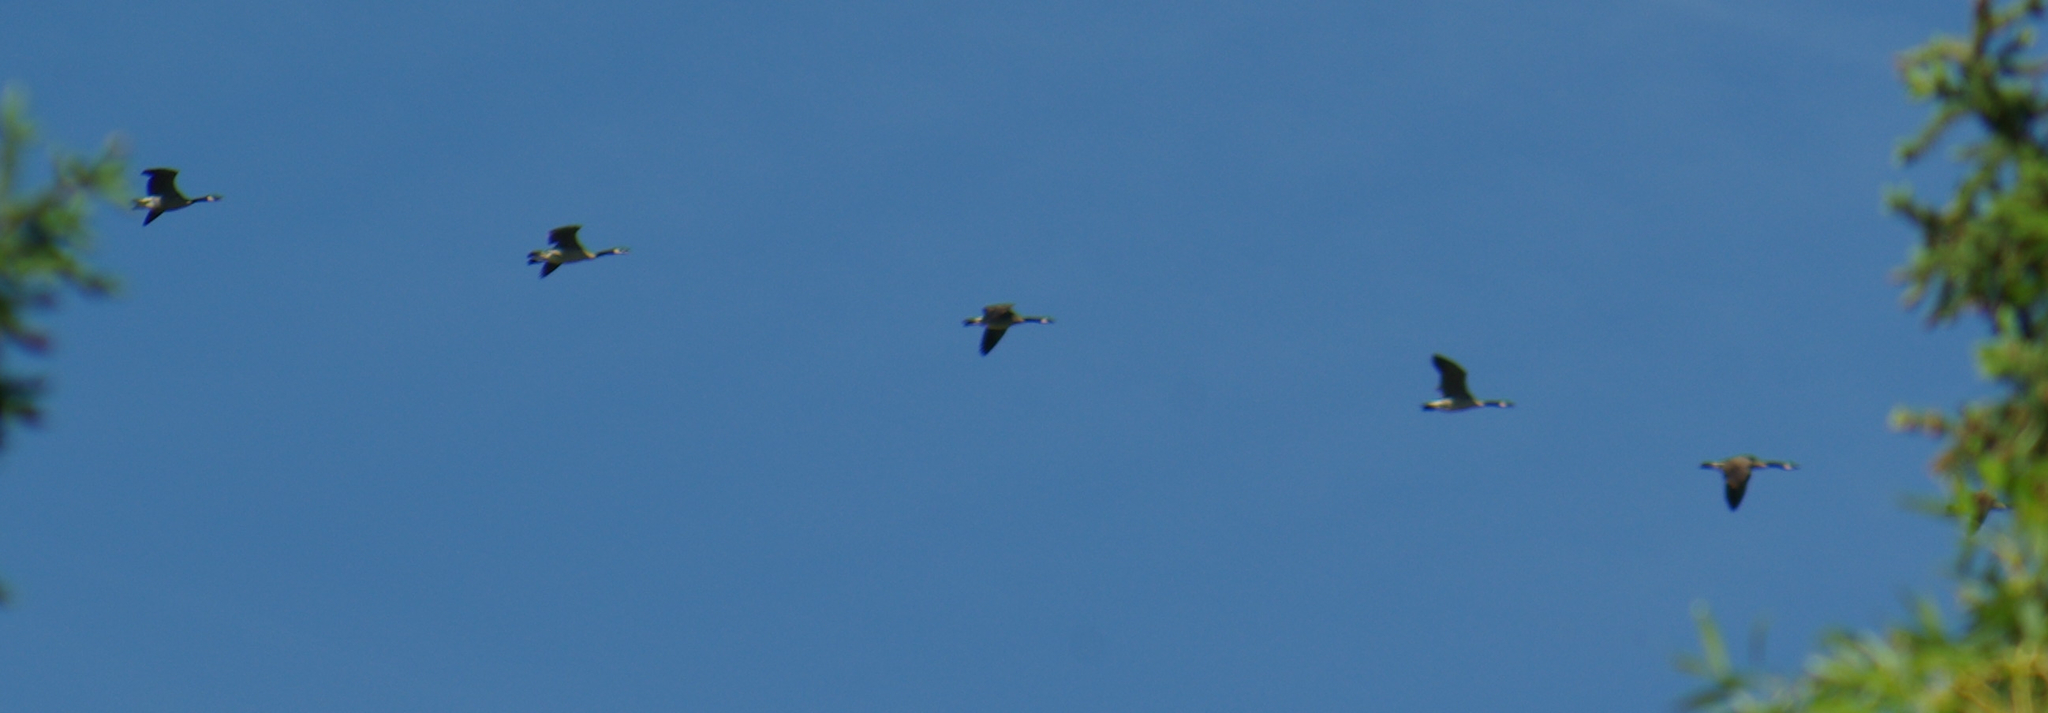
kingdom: Animalia
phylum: Chordata
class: Aves
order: Anseriformes
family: Anatidae
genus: Branta
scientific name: Branta canadensis
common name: Canada goose
